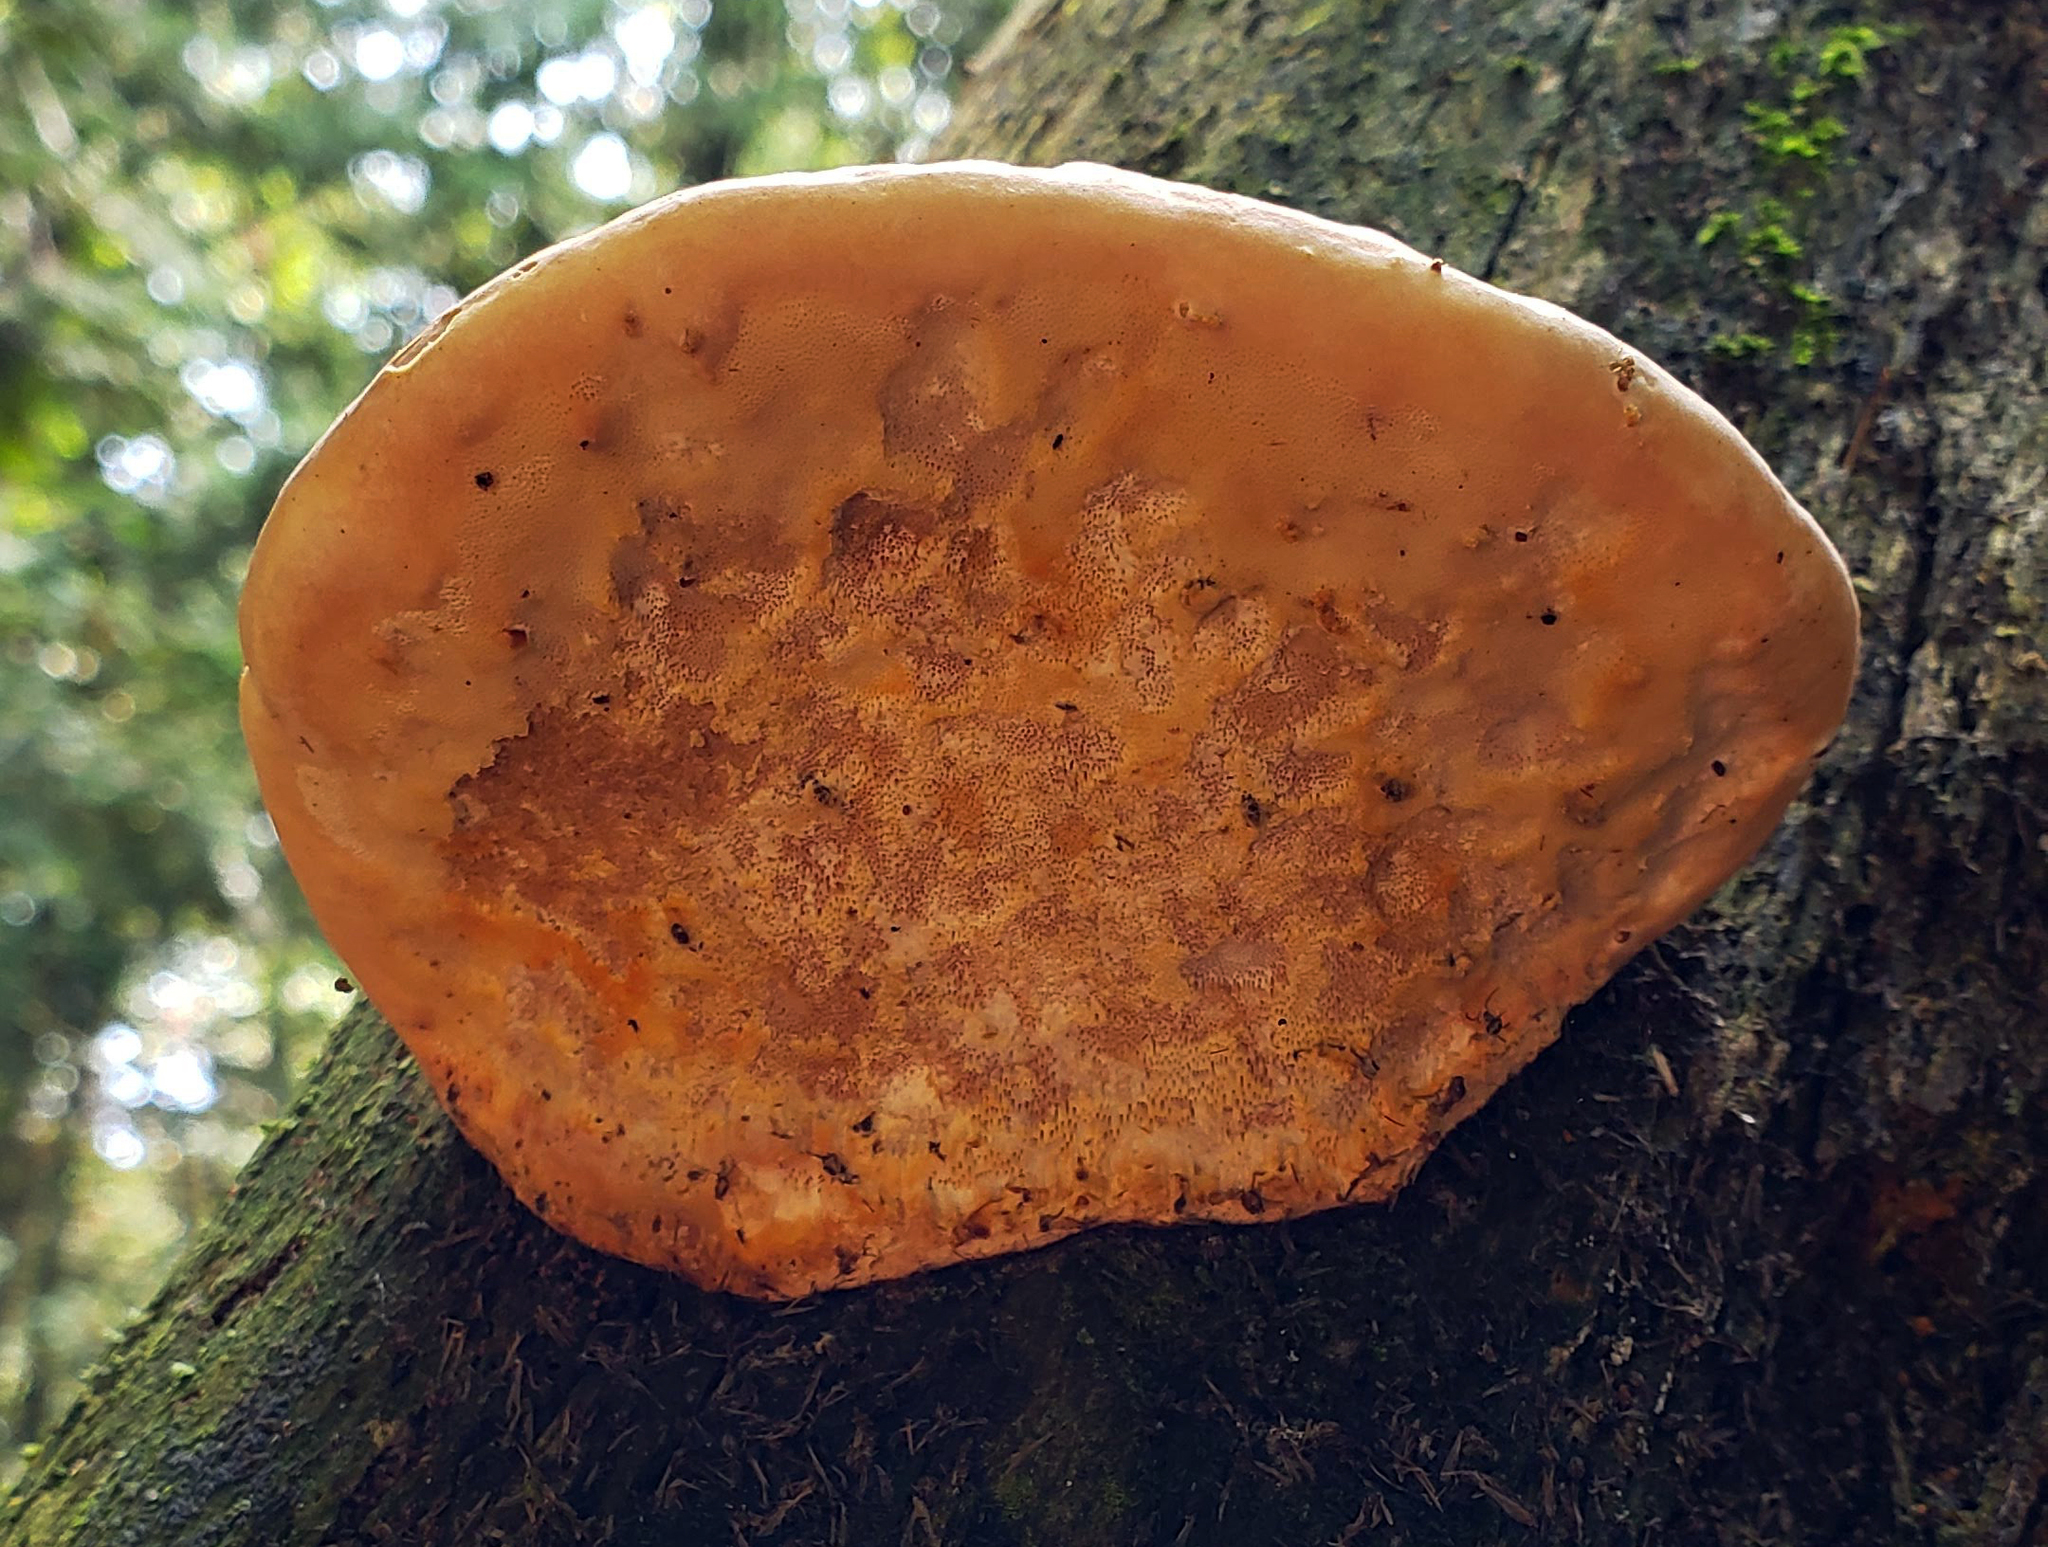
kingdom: Fungi
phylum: Basidiomycota
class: Agaricomycetes
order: Polyporales
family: Fomitopsidaceae
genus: Fomitopsis
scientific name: Fomitopsis mounceae
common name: Northern red belt
